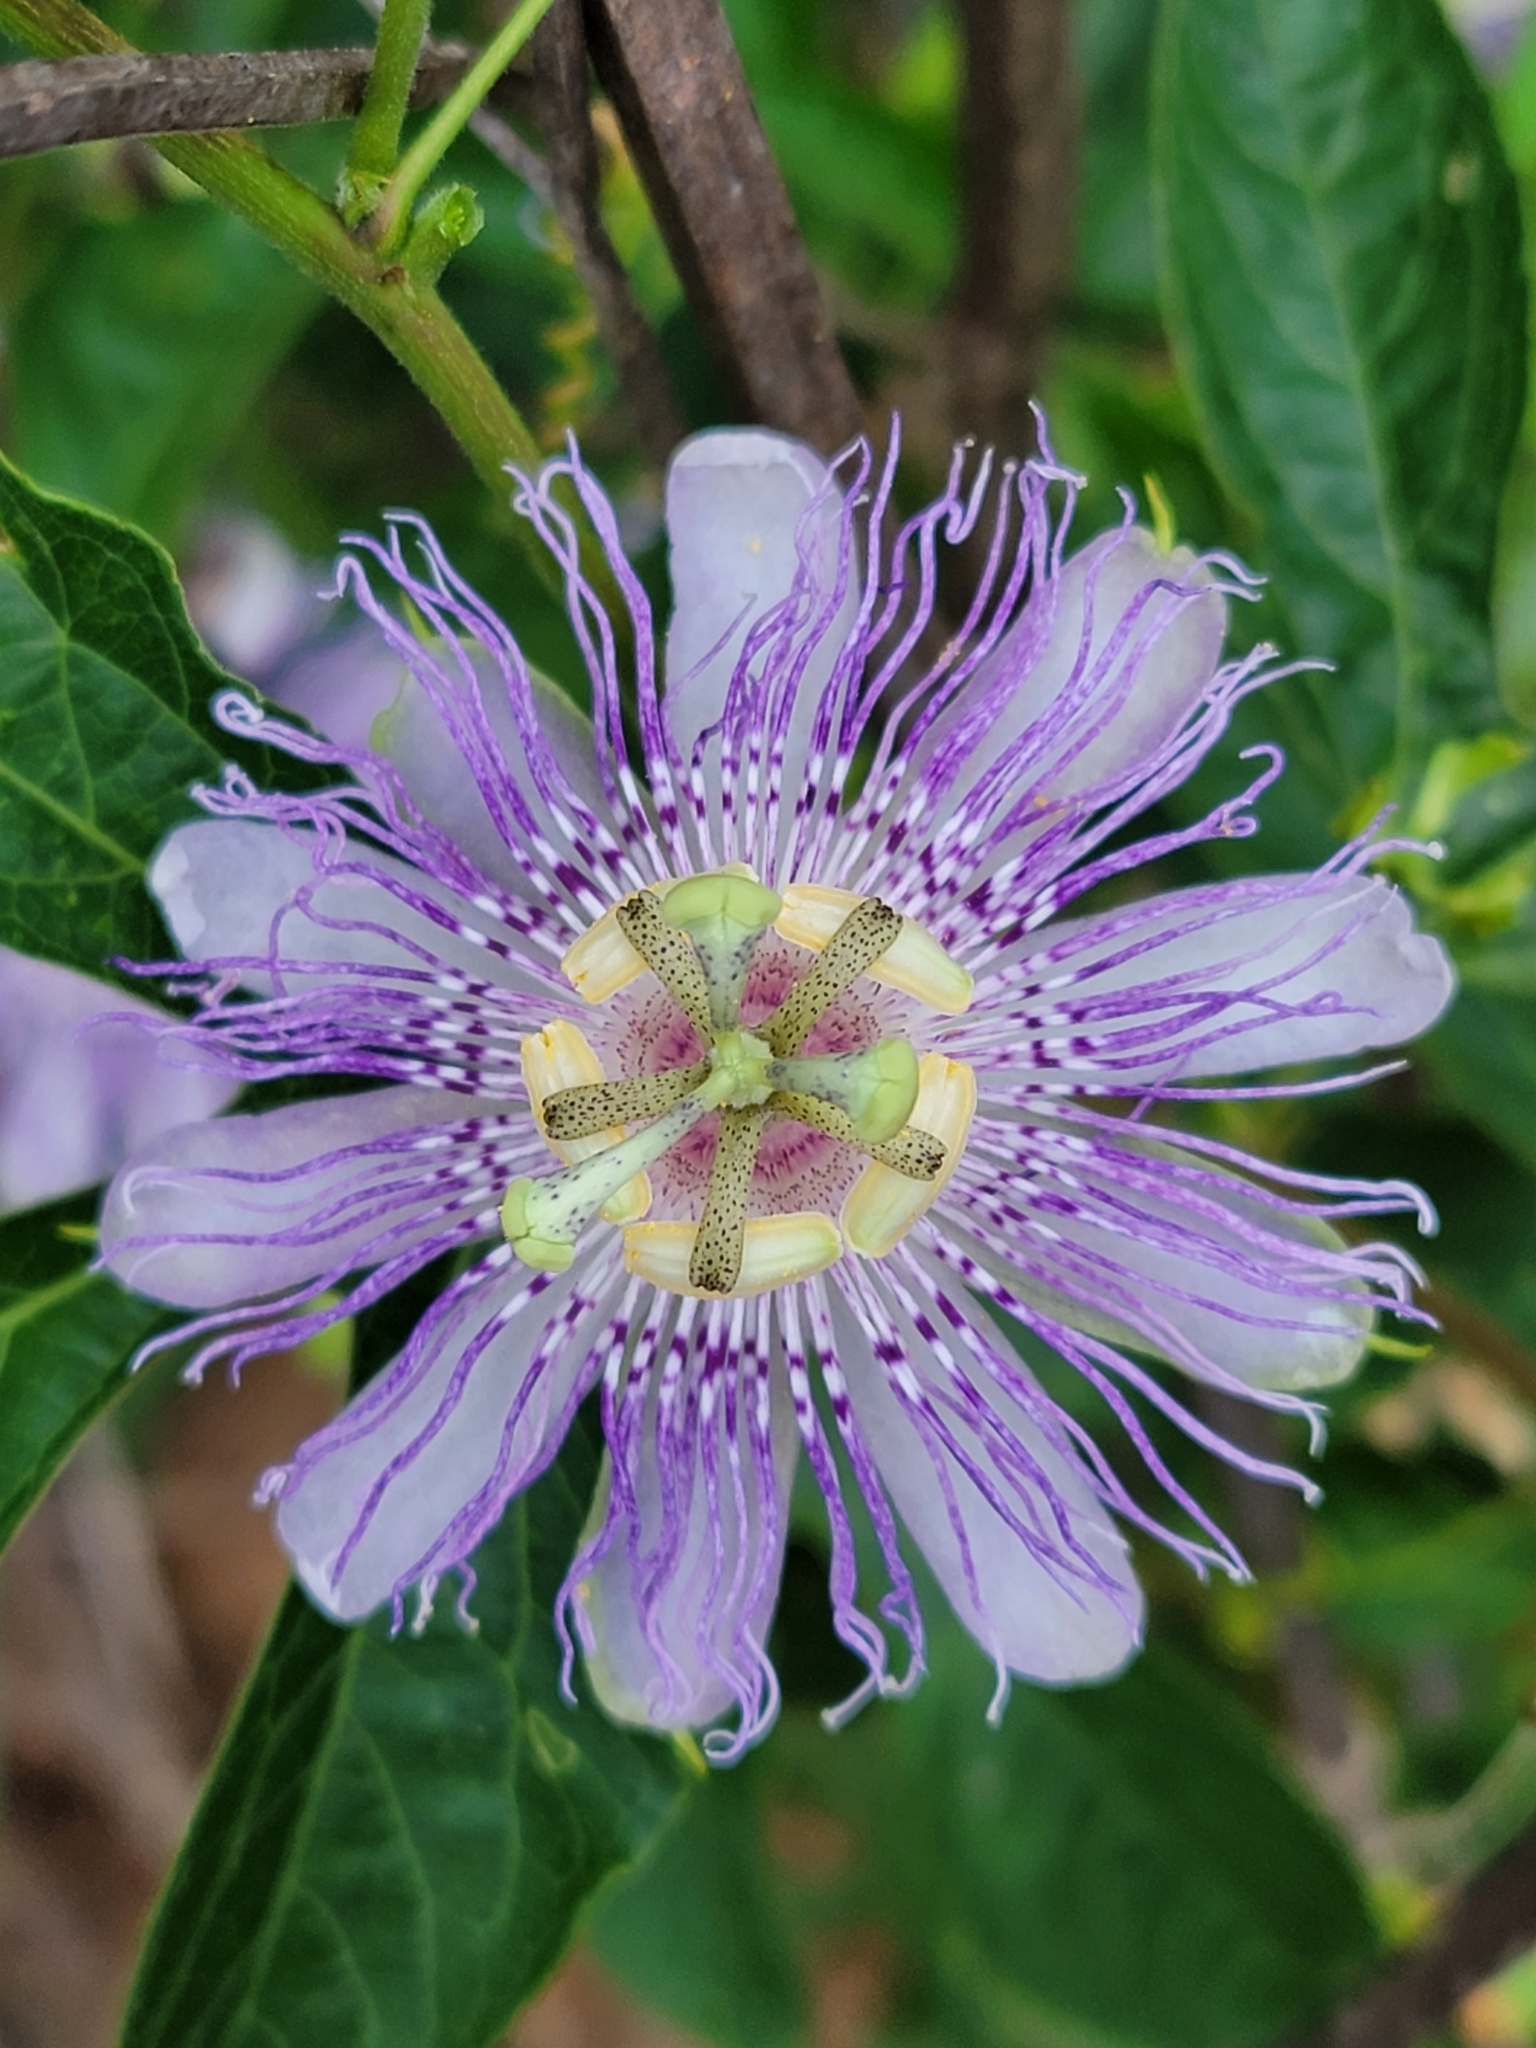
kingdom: Plantae
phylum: Tracheophyta
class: Magnoliopsida
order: Malpighiales
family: Passifloraceae
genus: Passiflora
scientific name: Passiflora incarnata
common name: Apricot-vine
